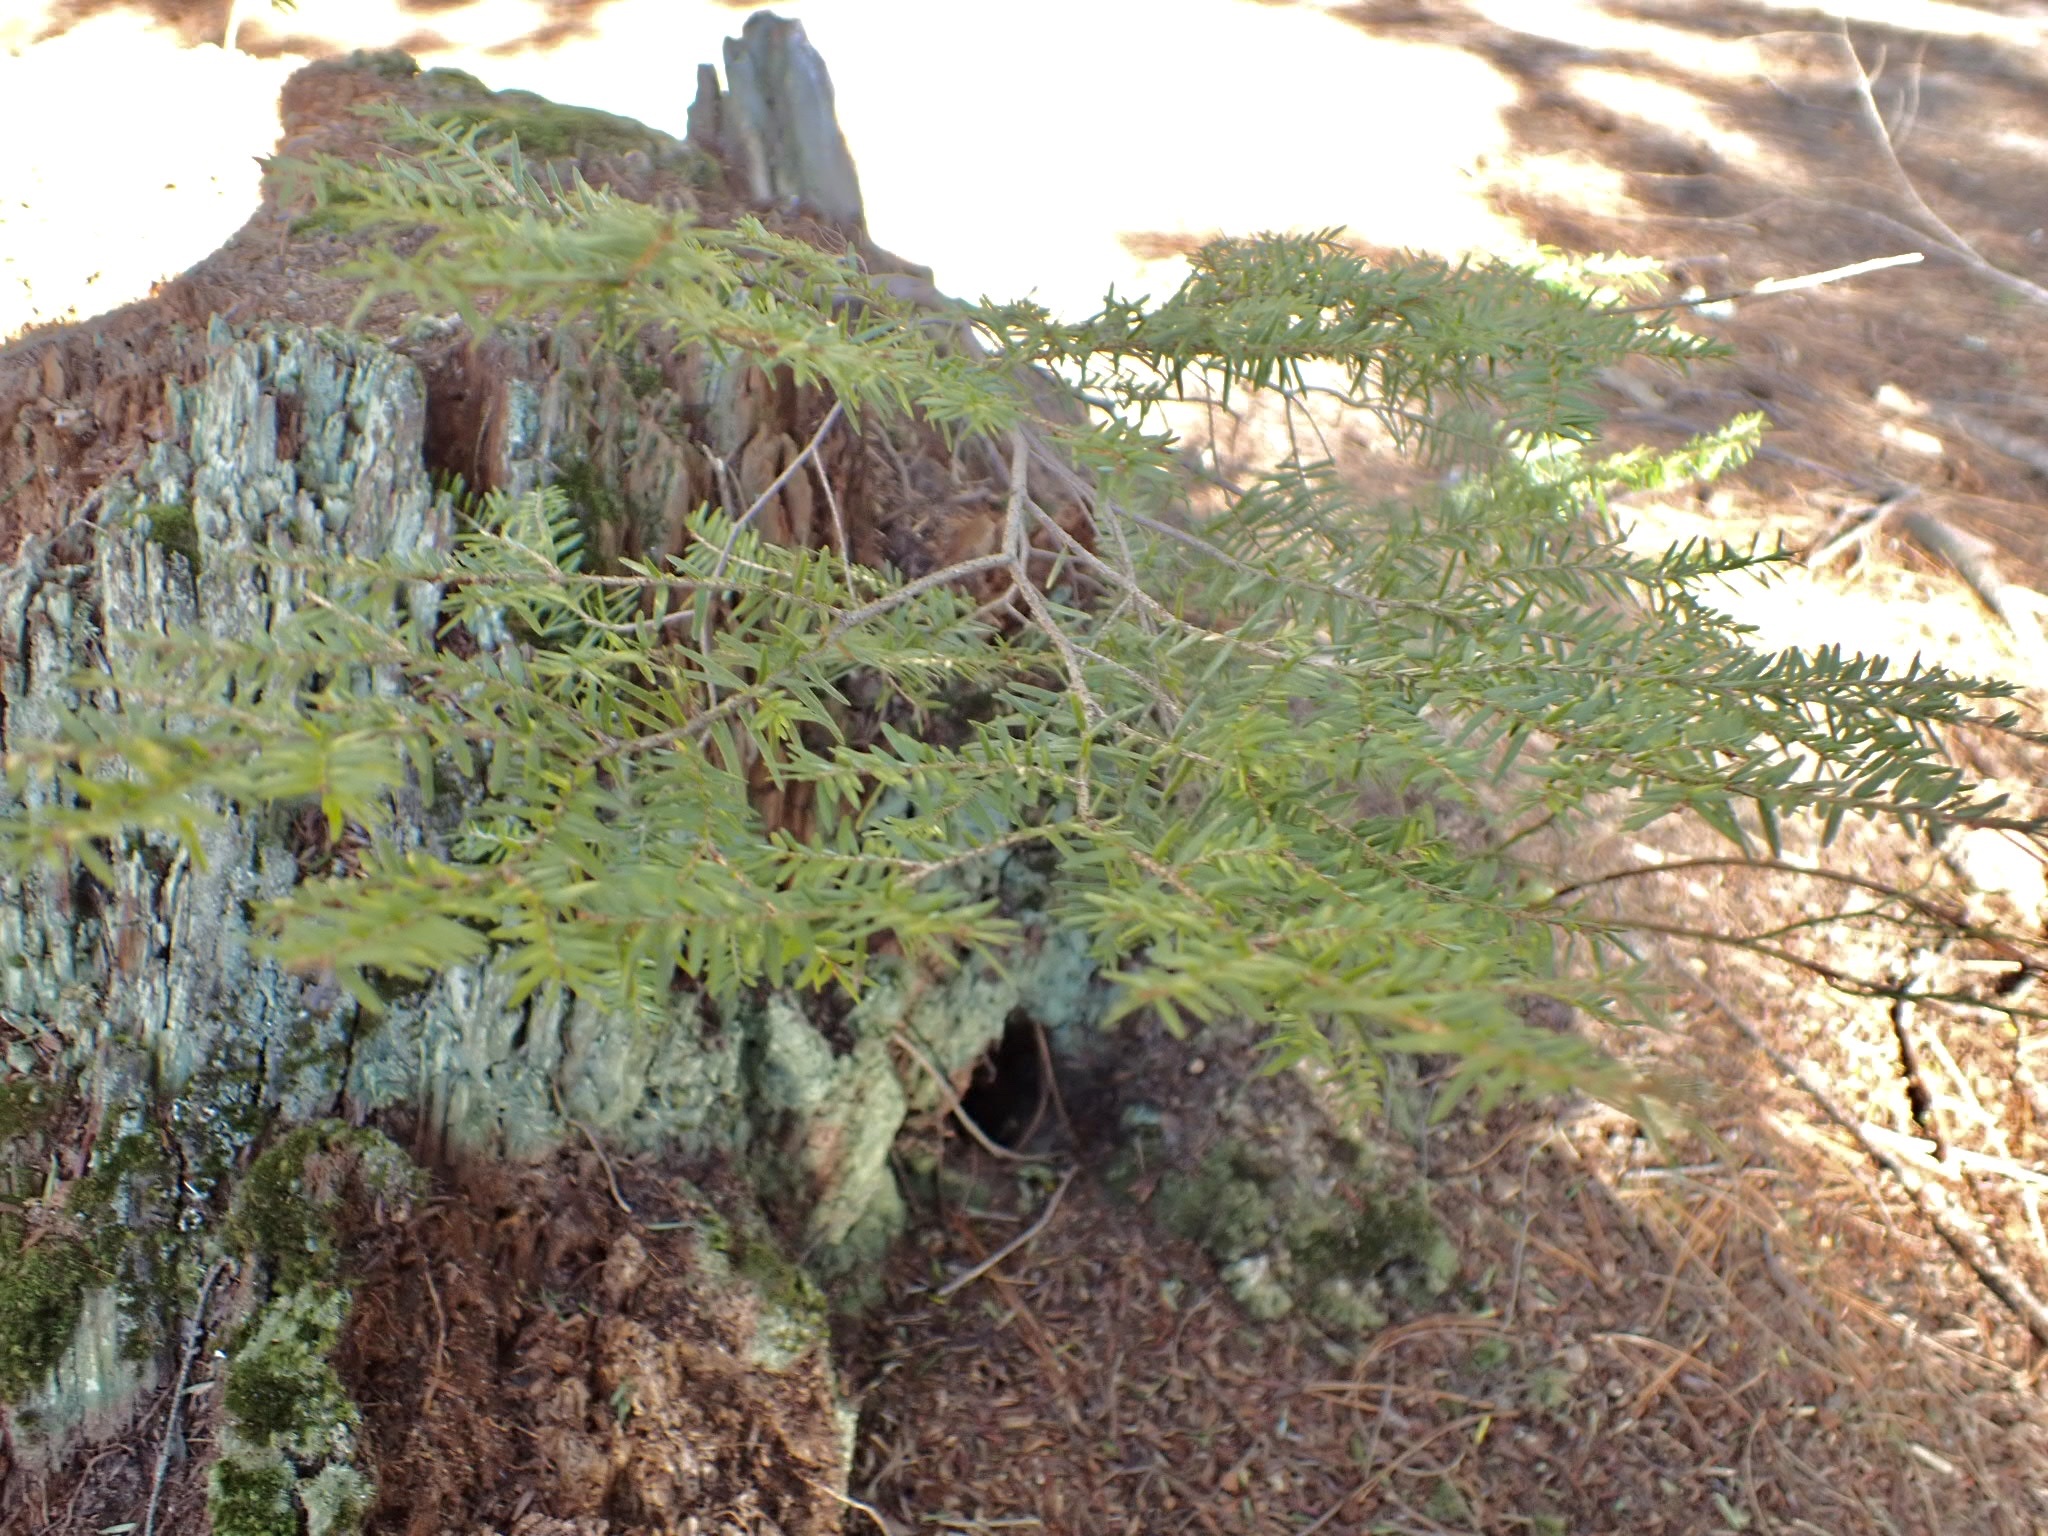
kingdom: Plantae
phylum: Tracheophyta
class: Pinopsida
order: Pinales
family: Pinaceae
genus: Tsuga
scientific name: Tsuga canadensis
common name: Eastern hemlock
